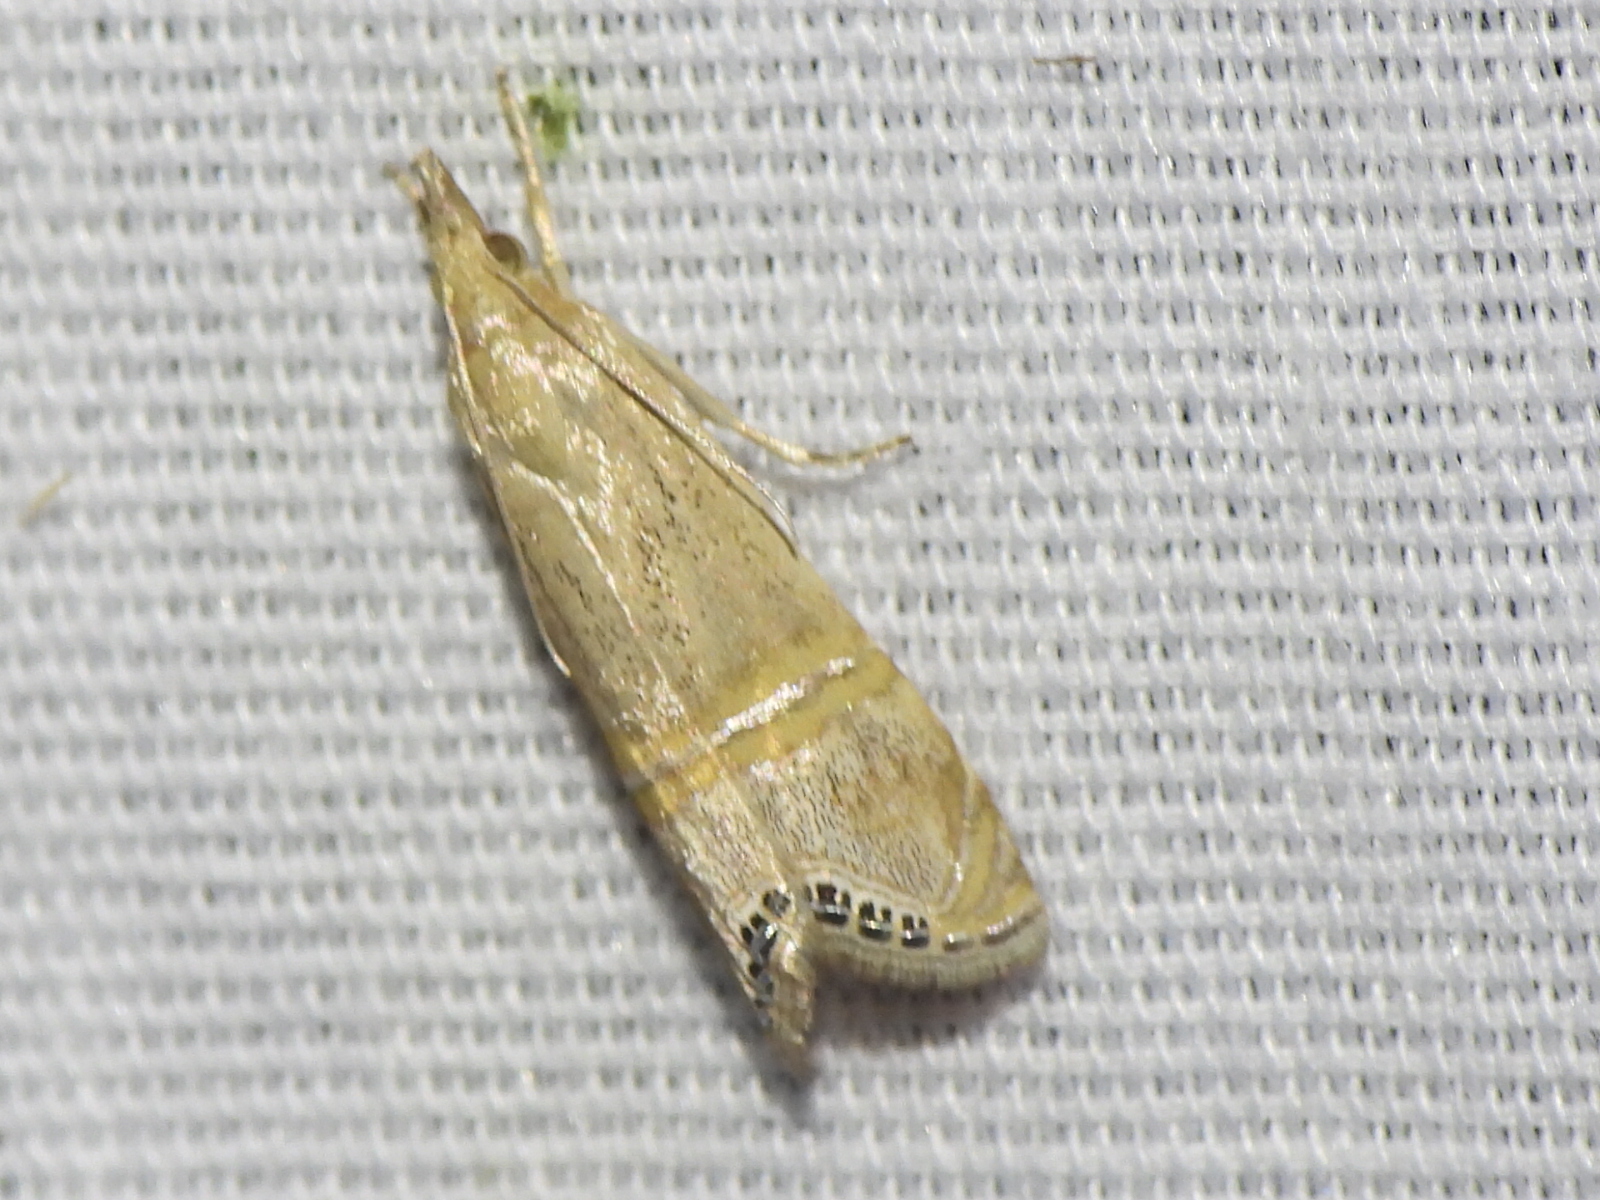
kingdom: Animalia
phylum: Arthropoda
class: Insecta
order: Lepidoptera
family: Crambidae
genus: Euchromius
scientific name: Euchromius ocellea
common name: Necklace veneer moth
